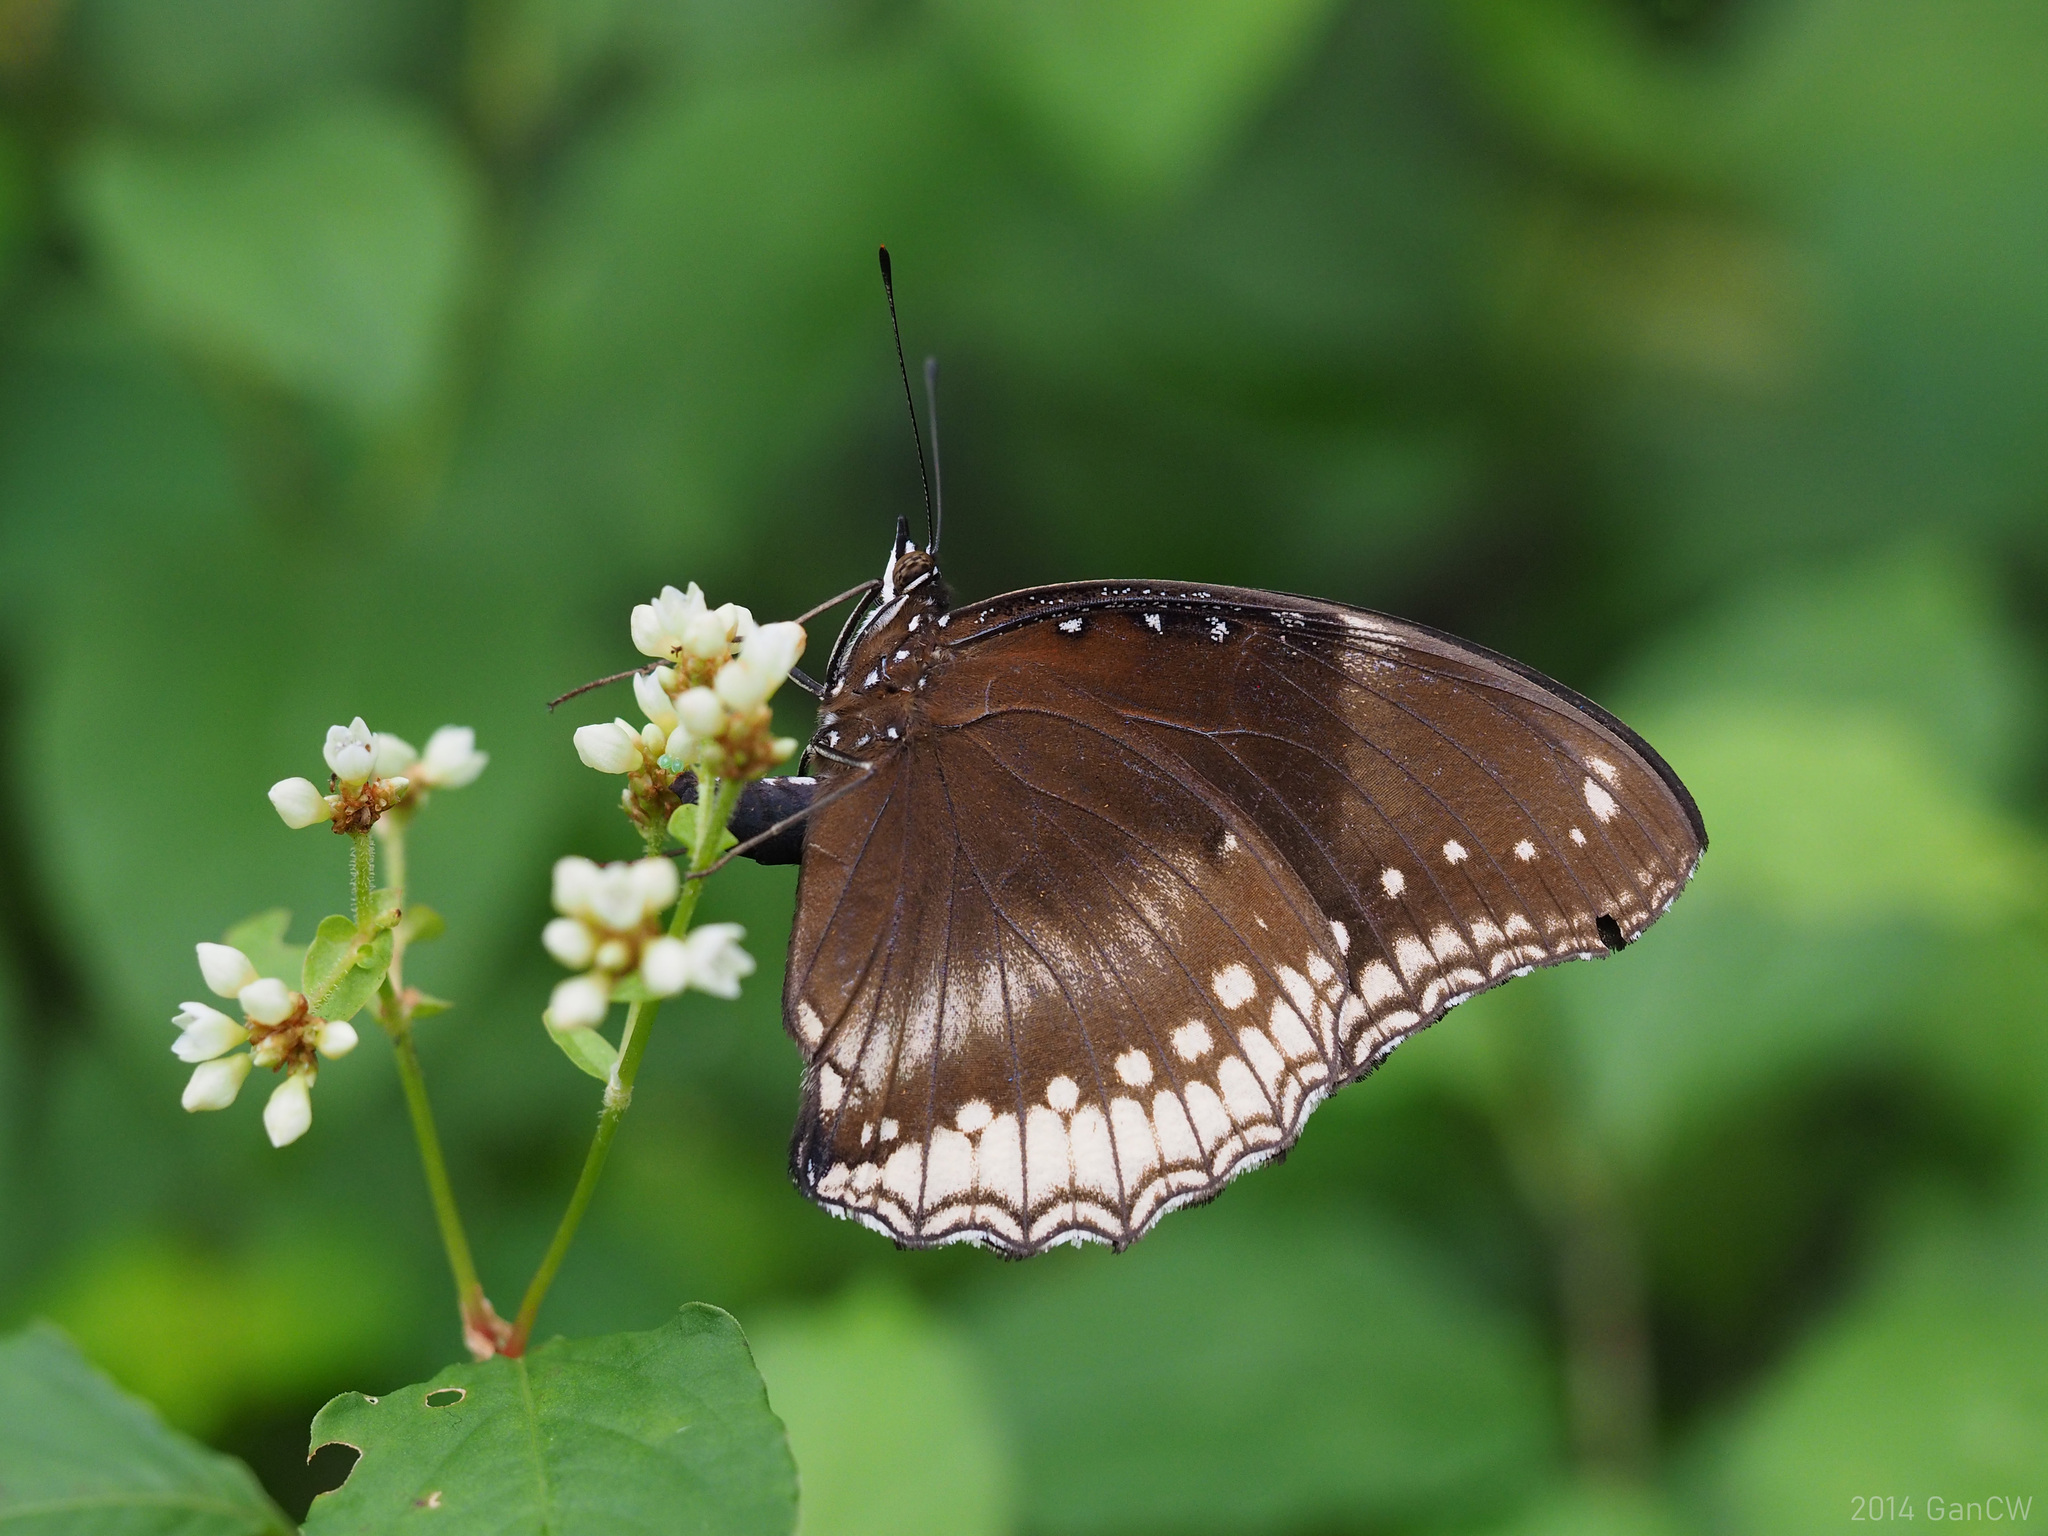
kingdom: Animalia
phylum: Arthropoda
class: Insecta
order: Lepidoptera
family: Nymphalidae
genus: Hypolimnas
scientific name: Hypolimnas bolina
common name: Great eggfly
